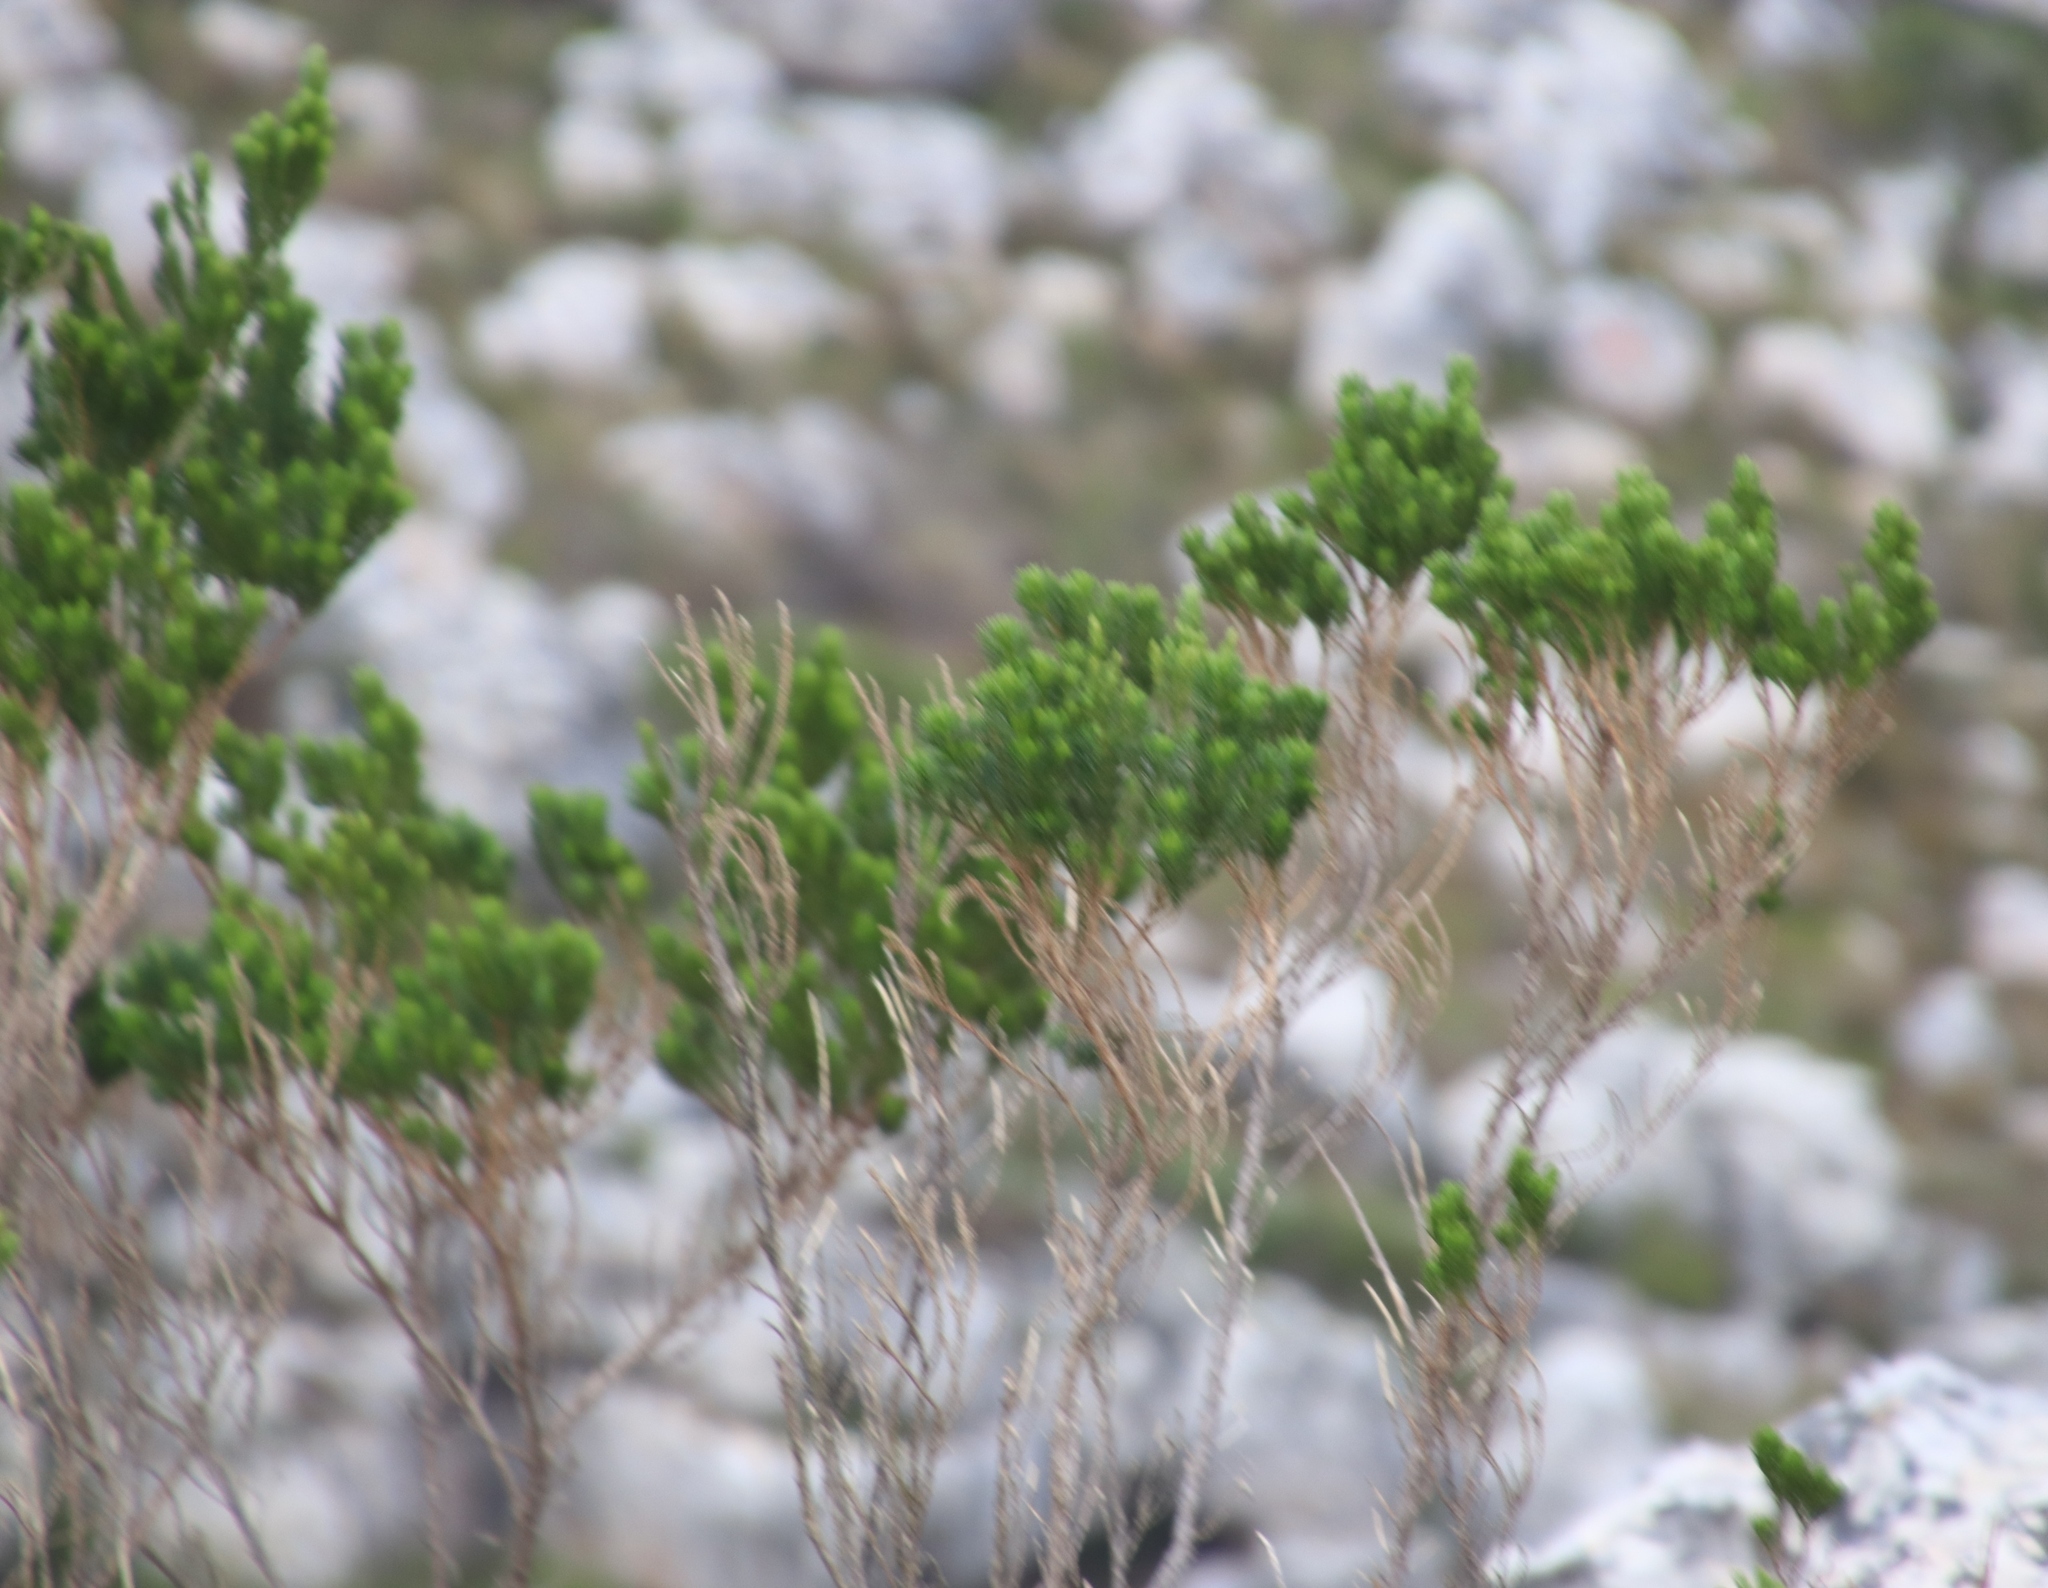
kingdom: Plantae
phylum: Tracheophyta
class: Magnoliopsida
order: Fabales
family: Fabaceae
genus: Psoralea
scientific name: Psoralea pinnata
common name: African scurfpea
